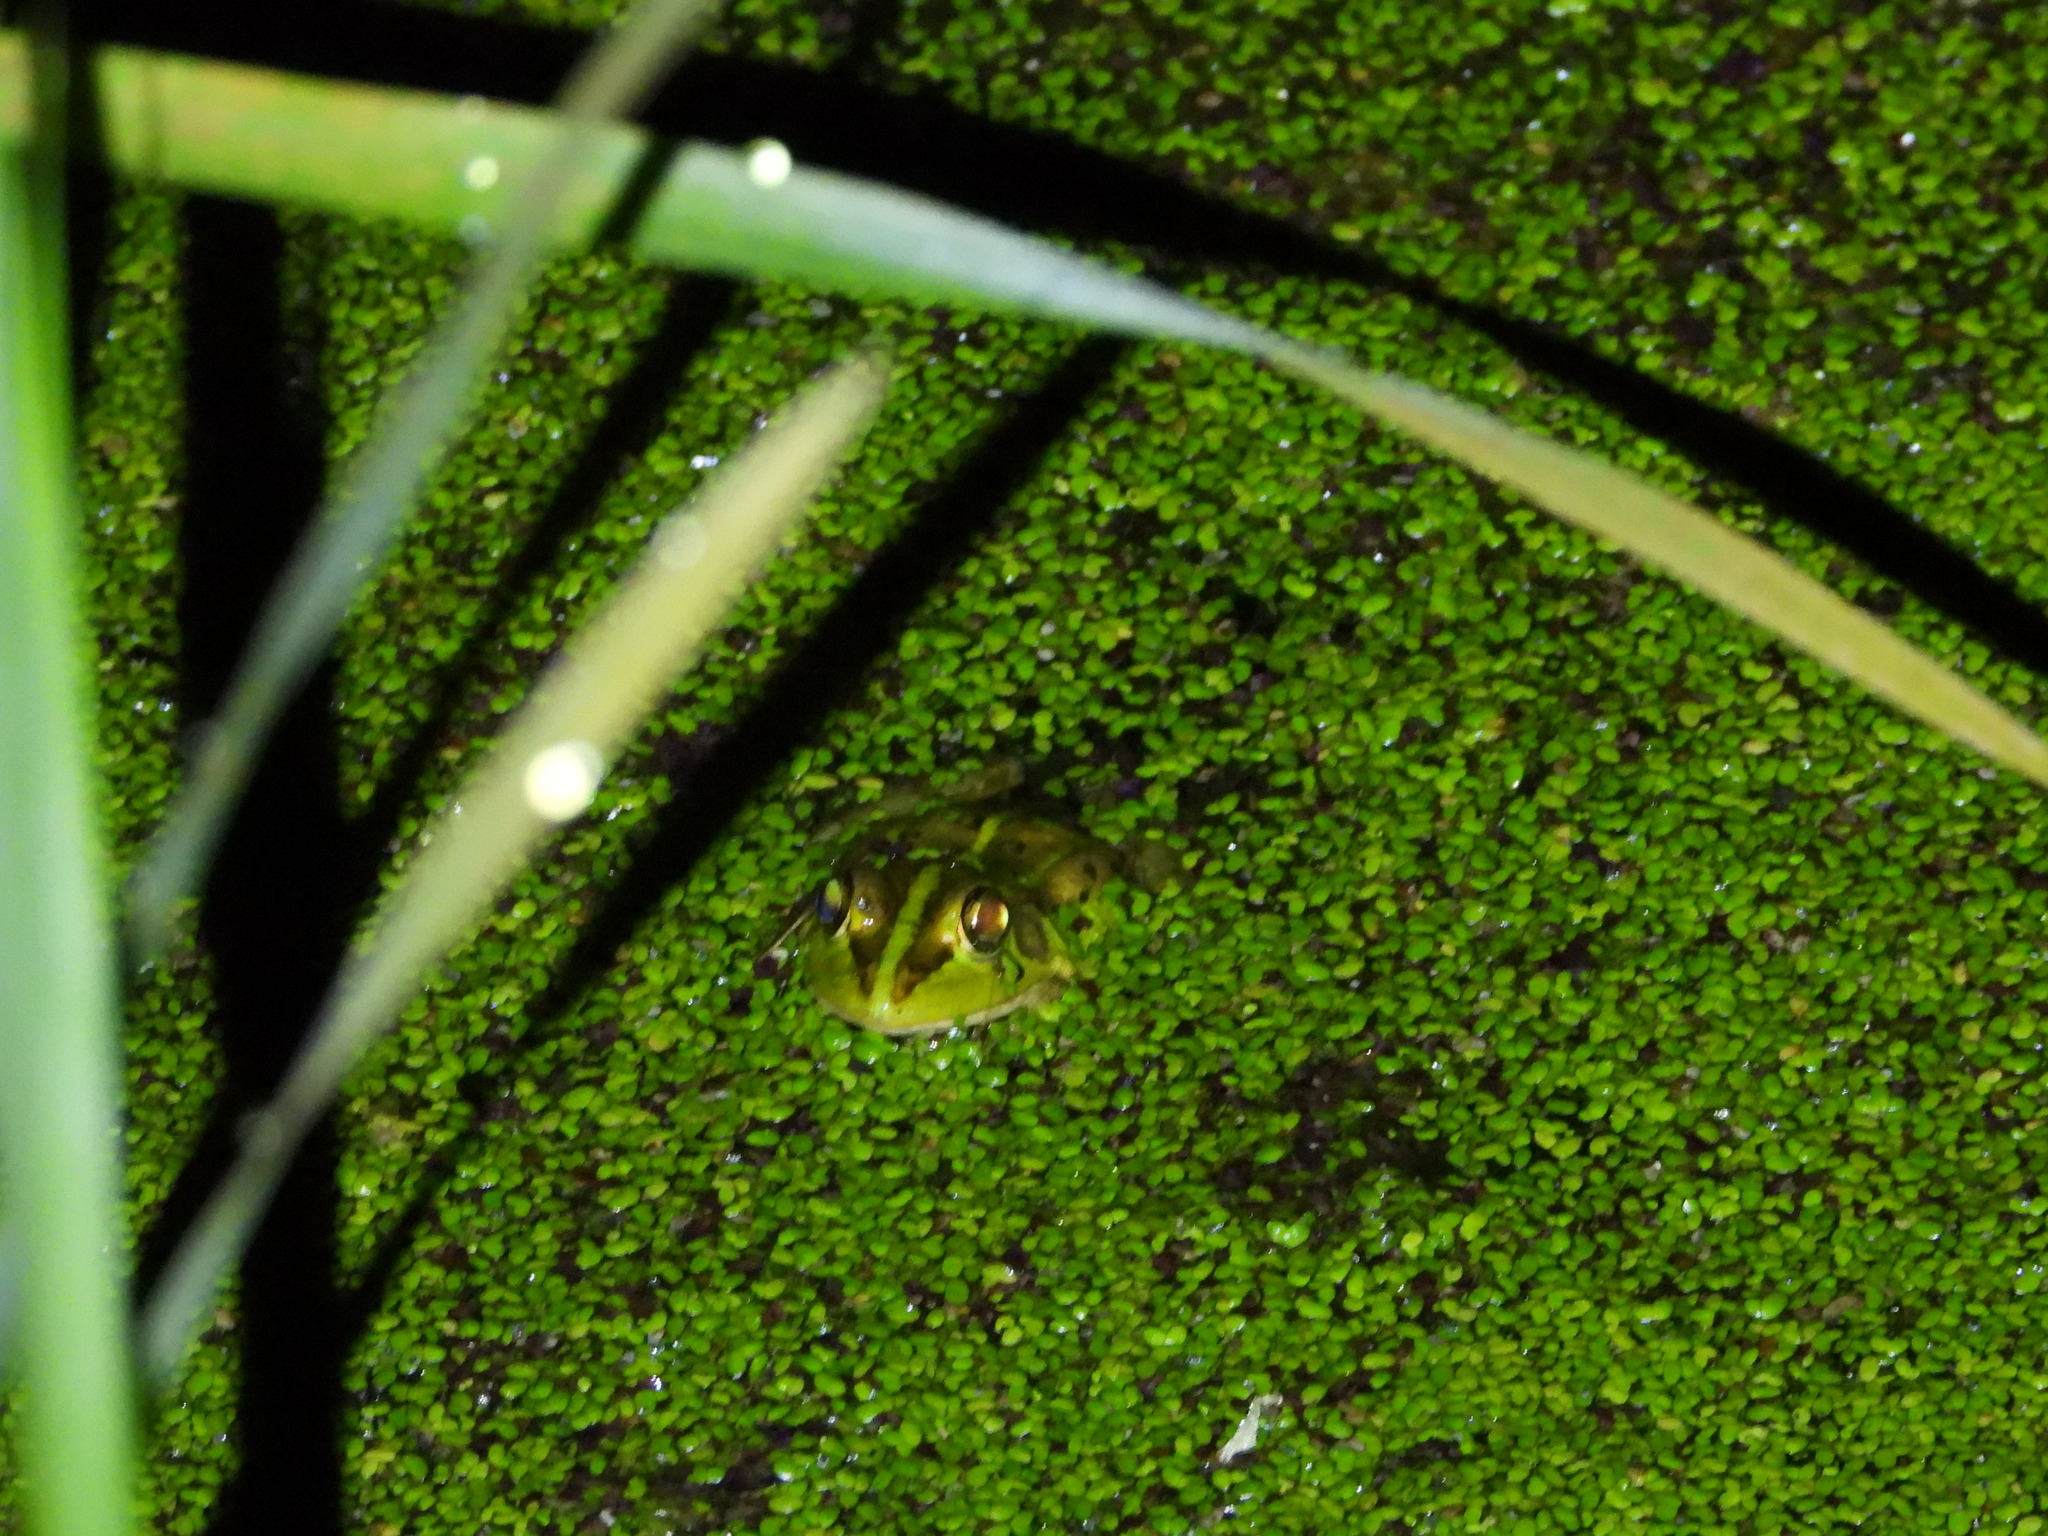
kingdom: Animalia
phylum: Chordata
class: Amphibia
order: Anura
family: Ranidae
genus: Pelophylax
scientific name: Pelophylax fukienensis
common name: Fukien gold-striped pond frog
